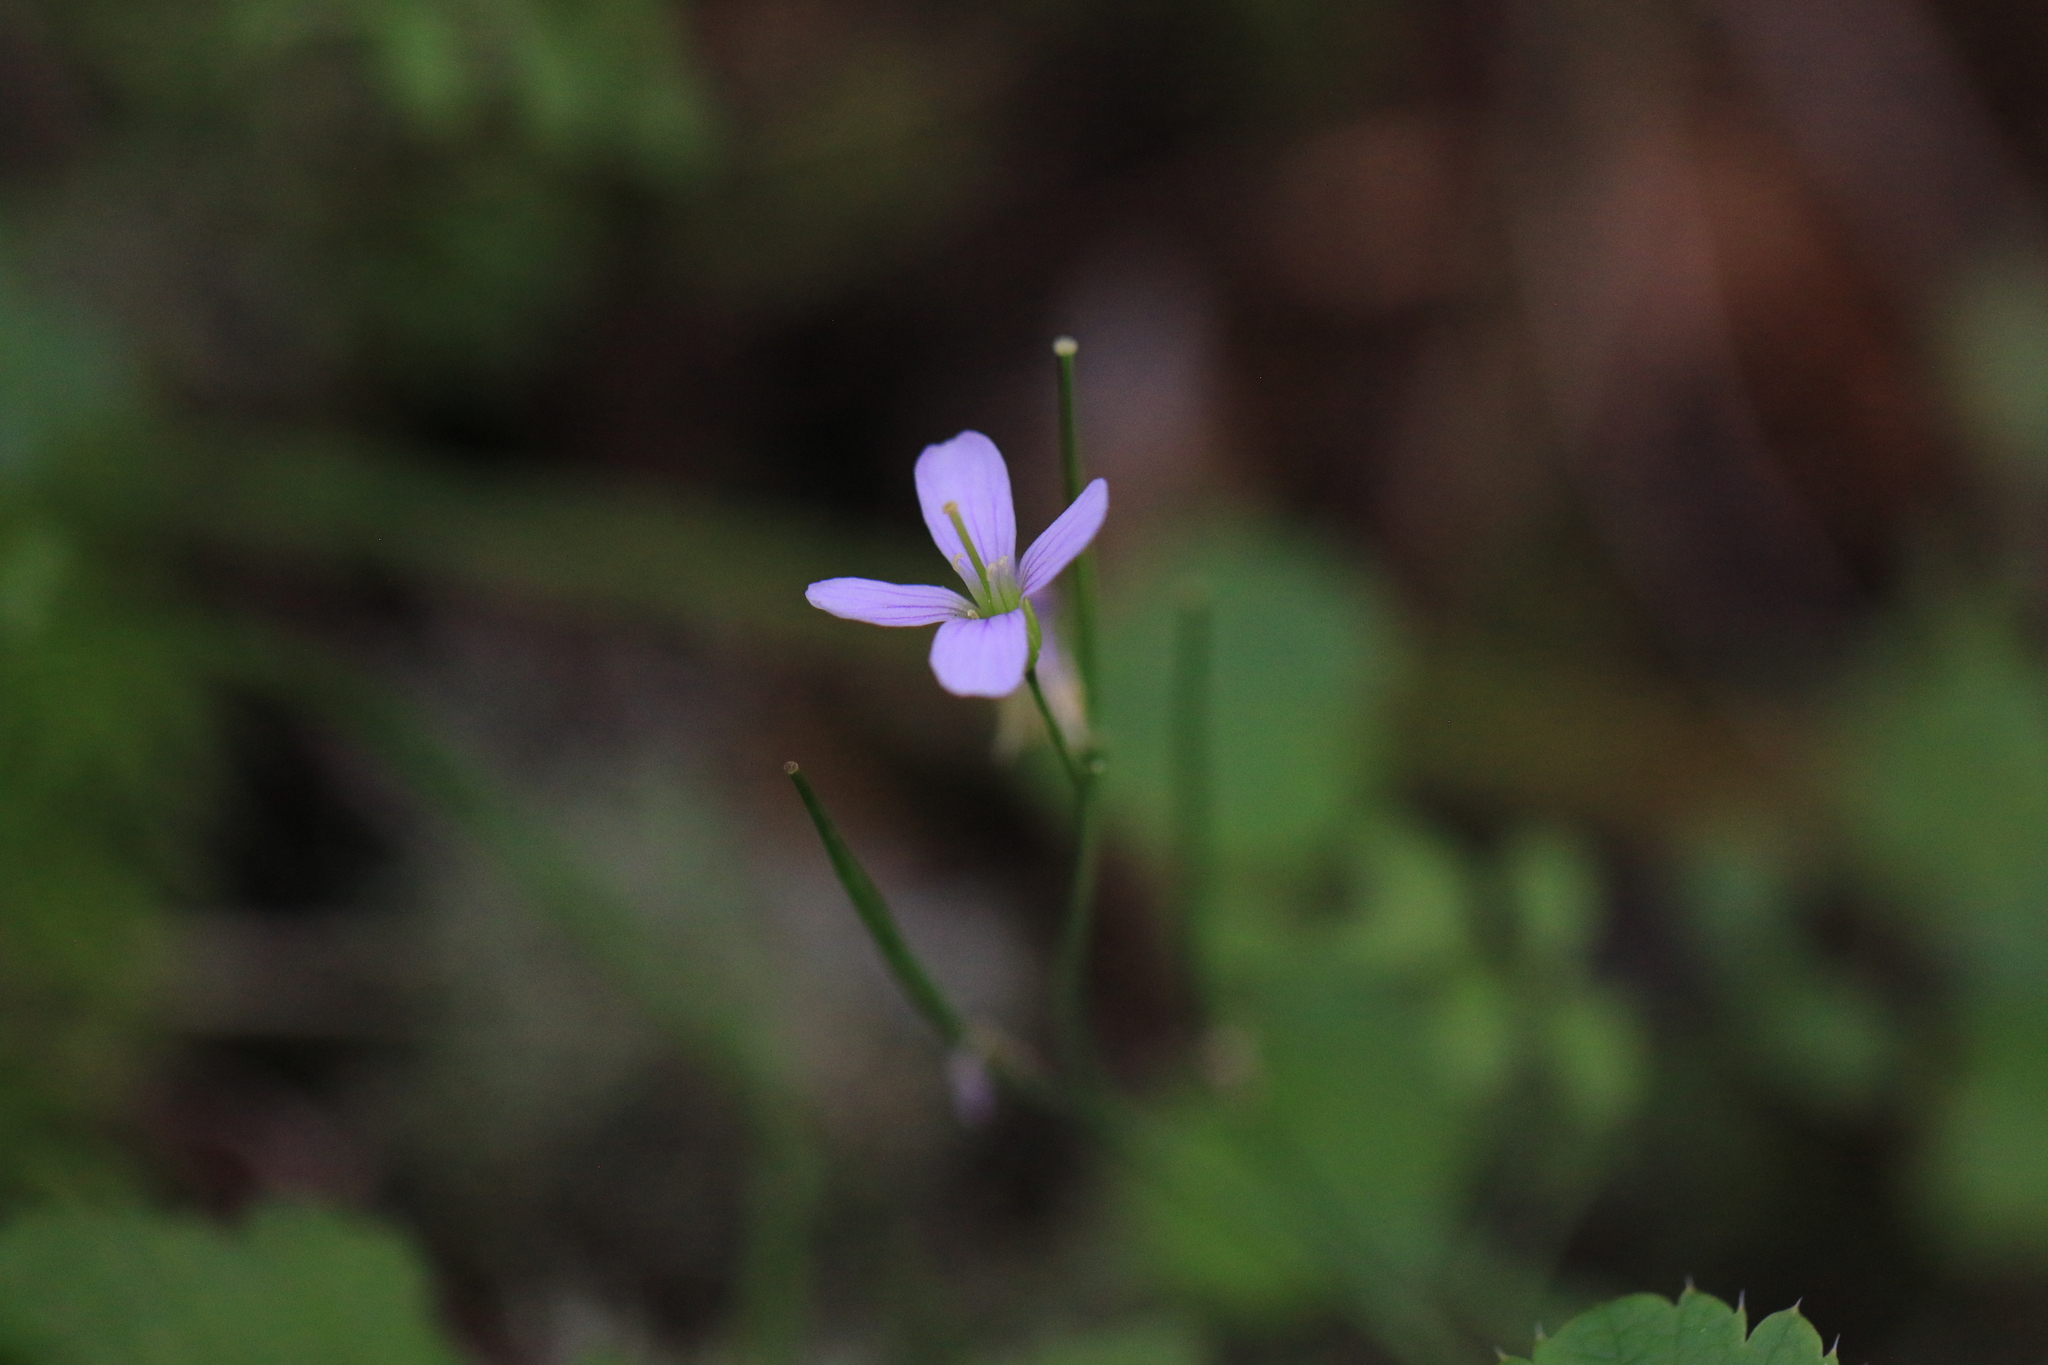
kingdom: Plantae
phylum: Tracheophyta
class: Magnoliopsida
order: Brassicales
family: Brassicaceae
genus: Cardamine
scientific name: Cardamine nuttallii
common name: Nuttall's toothwort
